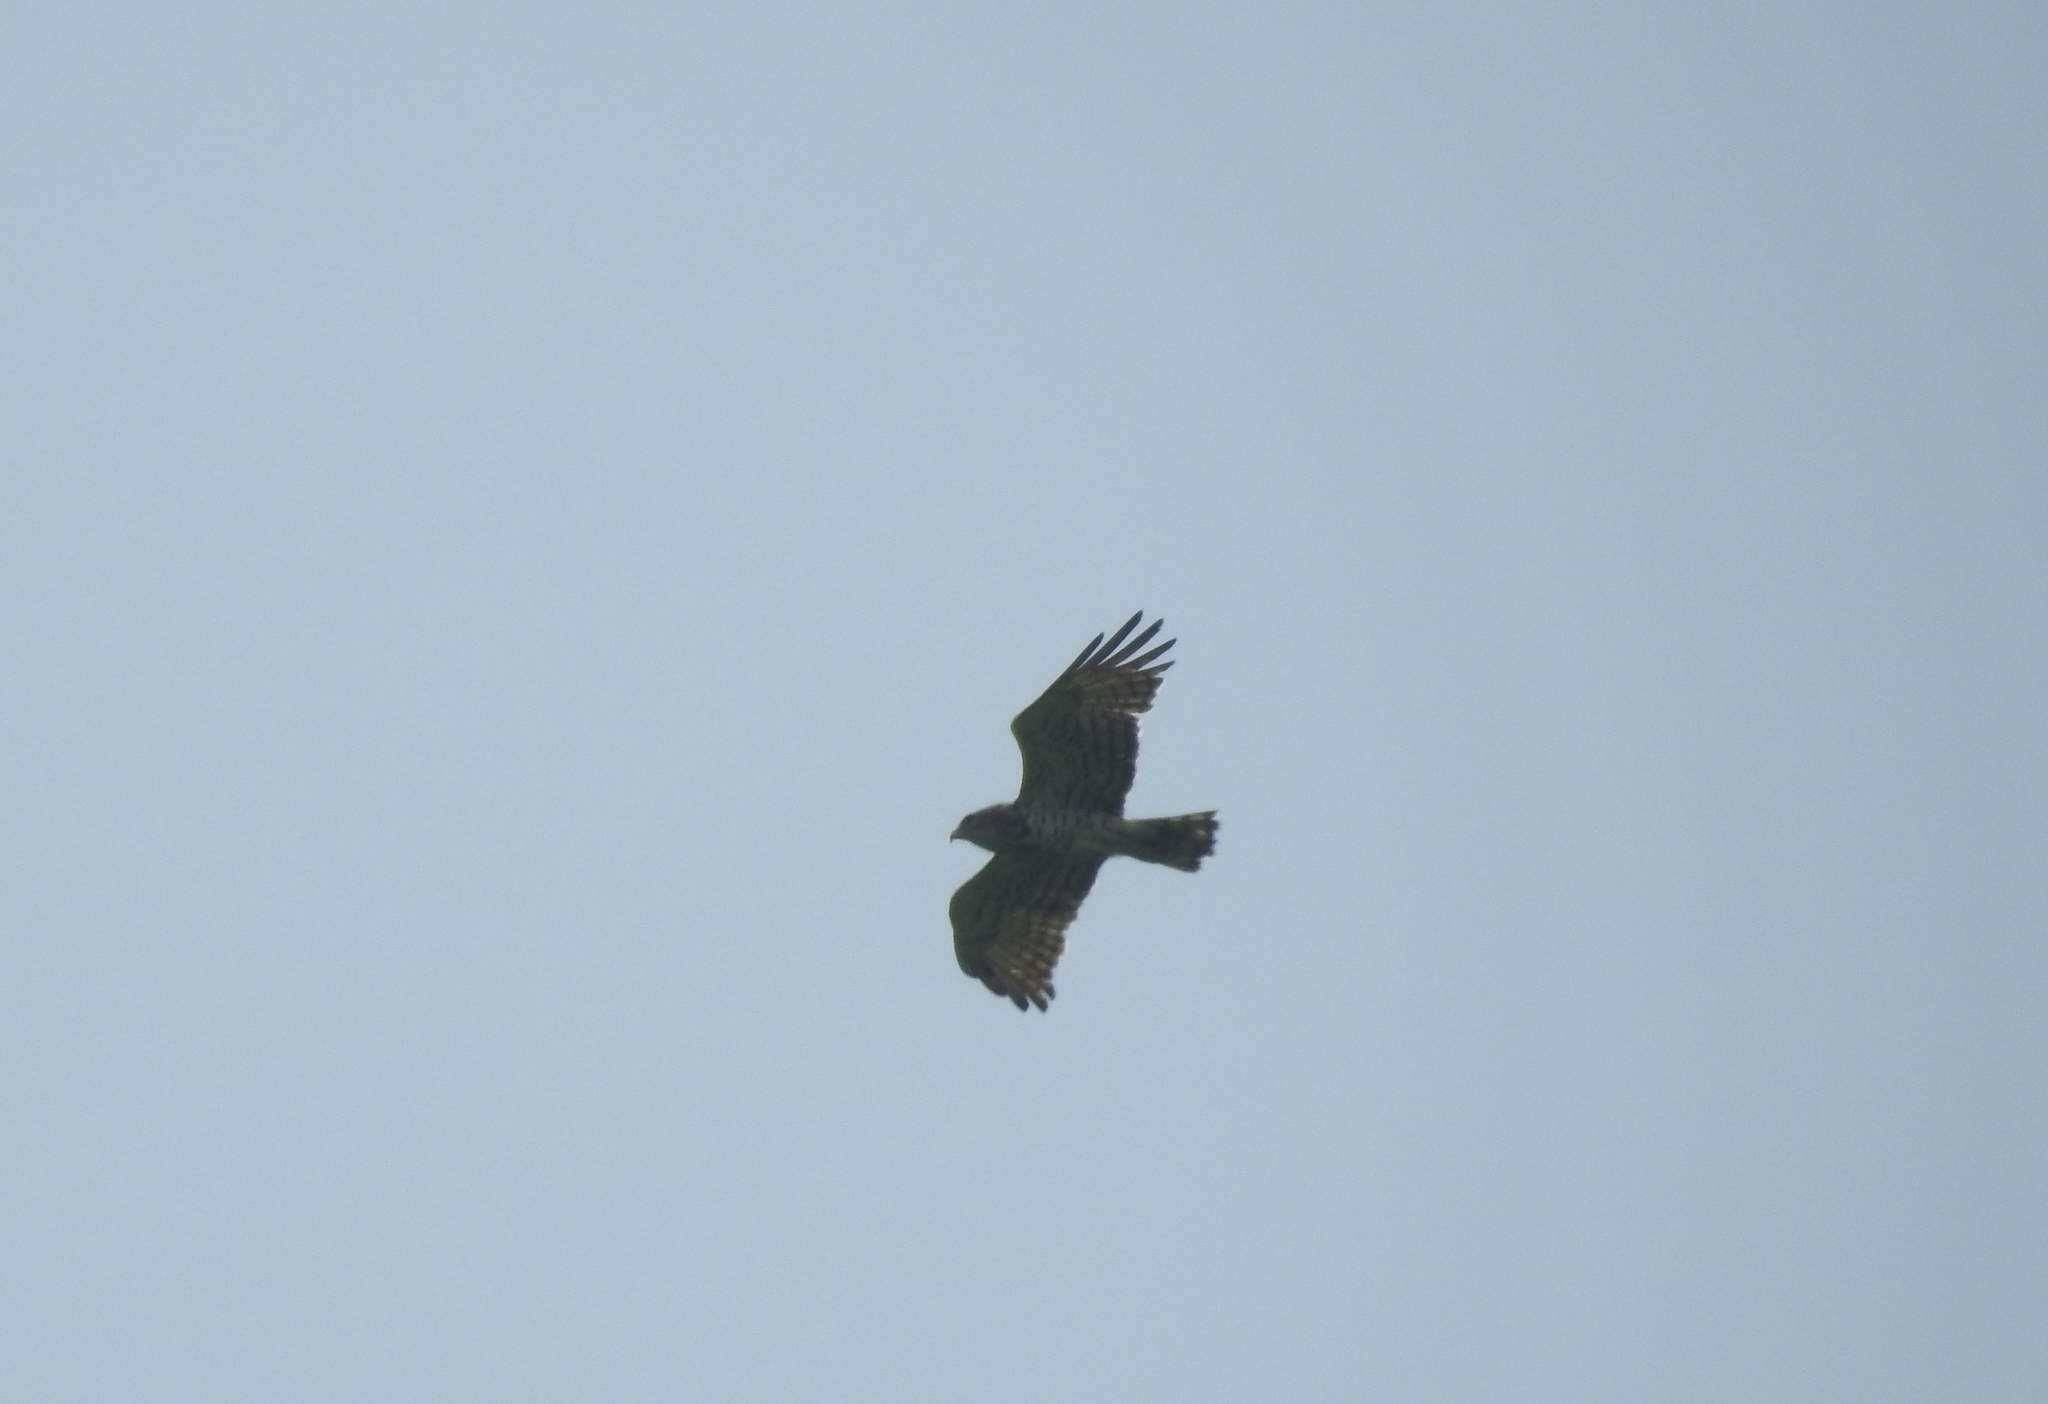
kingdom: Animalia
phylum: Chordata
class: Aves
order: Accipitriformes
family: Accipitridae
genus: Circaetus
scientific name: Circaetus gallicus
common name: Short-toed snake eagle
